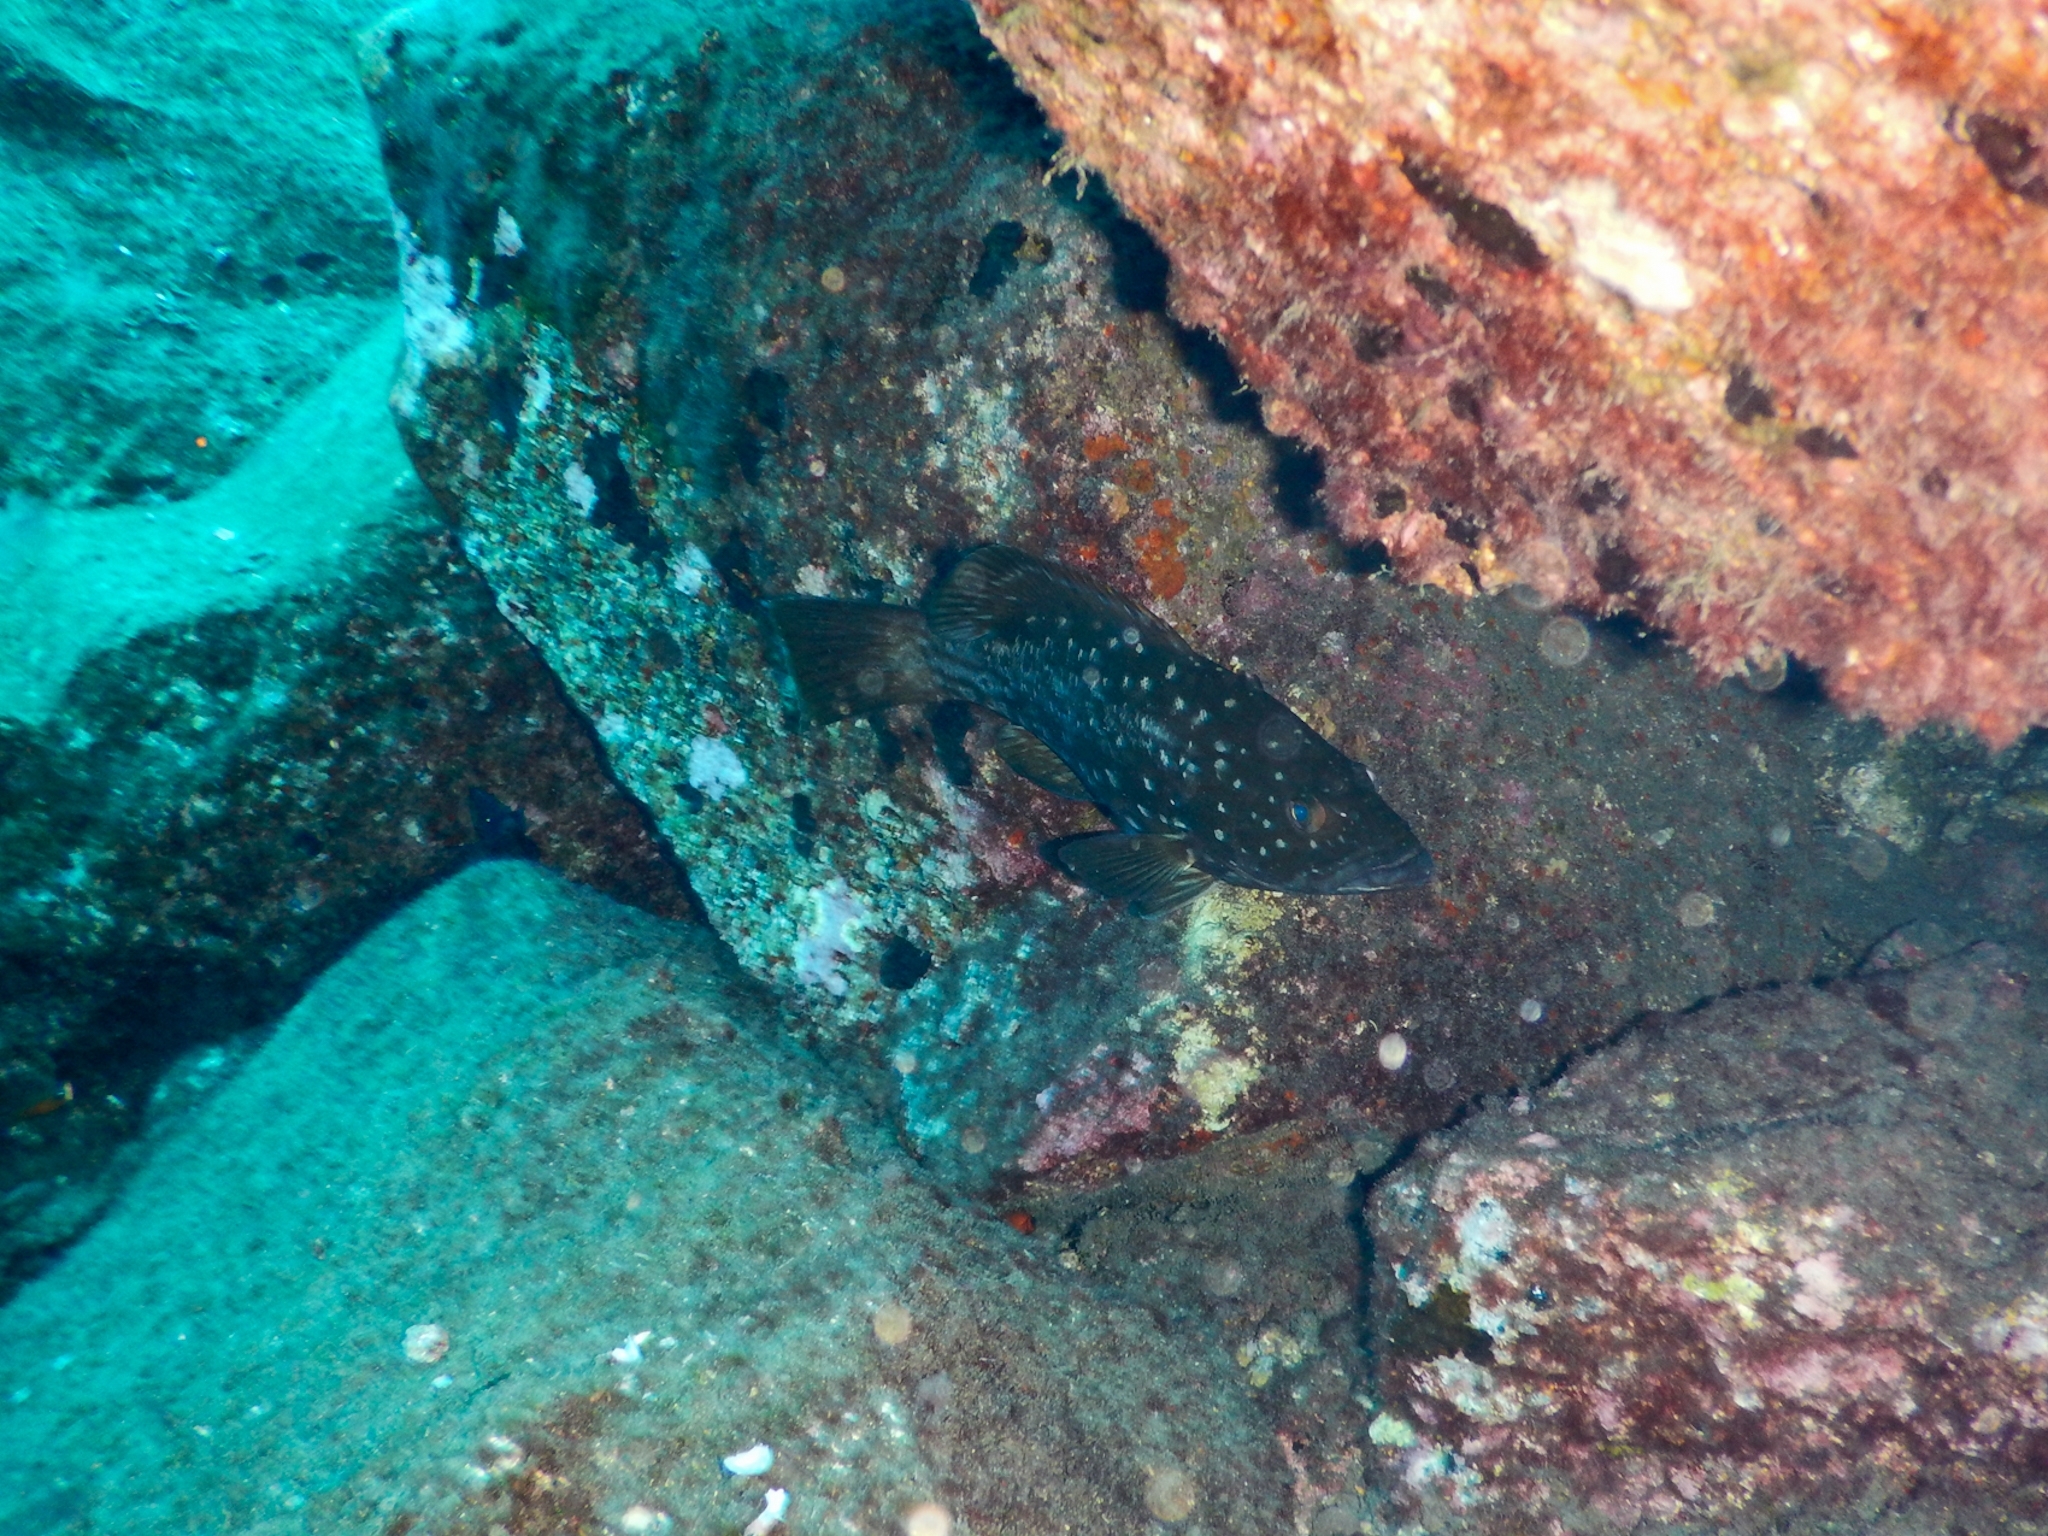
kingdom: Animalia
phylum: Chordata
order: Perciformes
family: Serranidae
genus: Mycteroperca
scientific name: Mycteroperca fusca
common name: Island grouper
